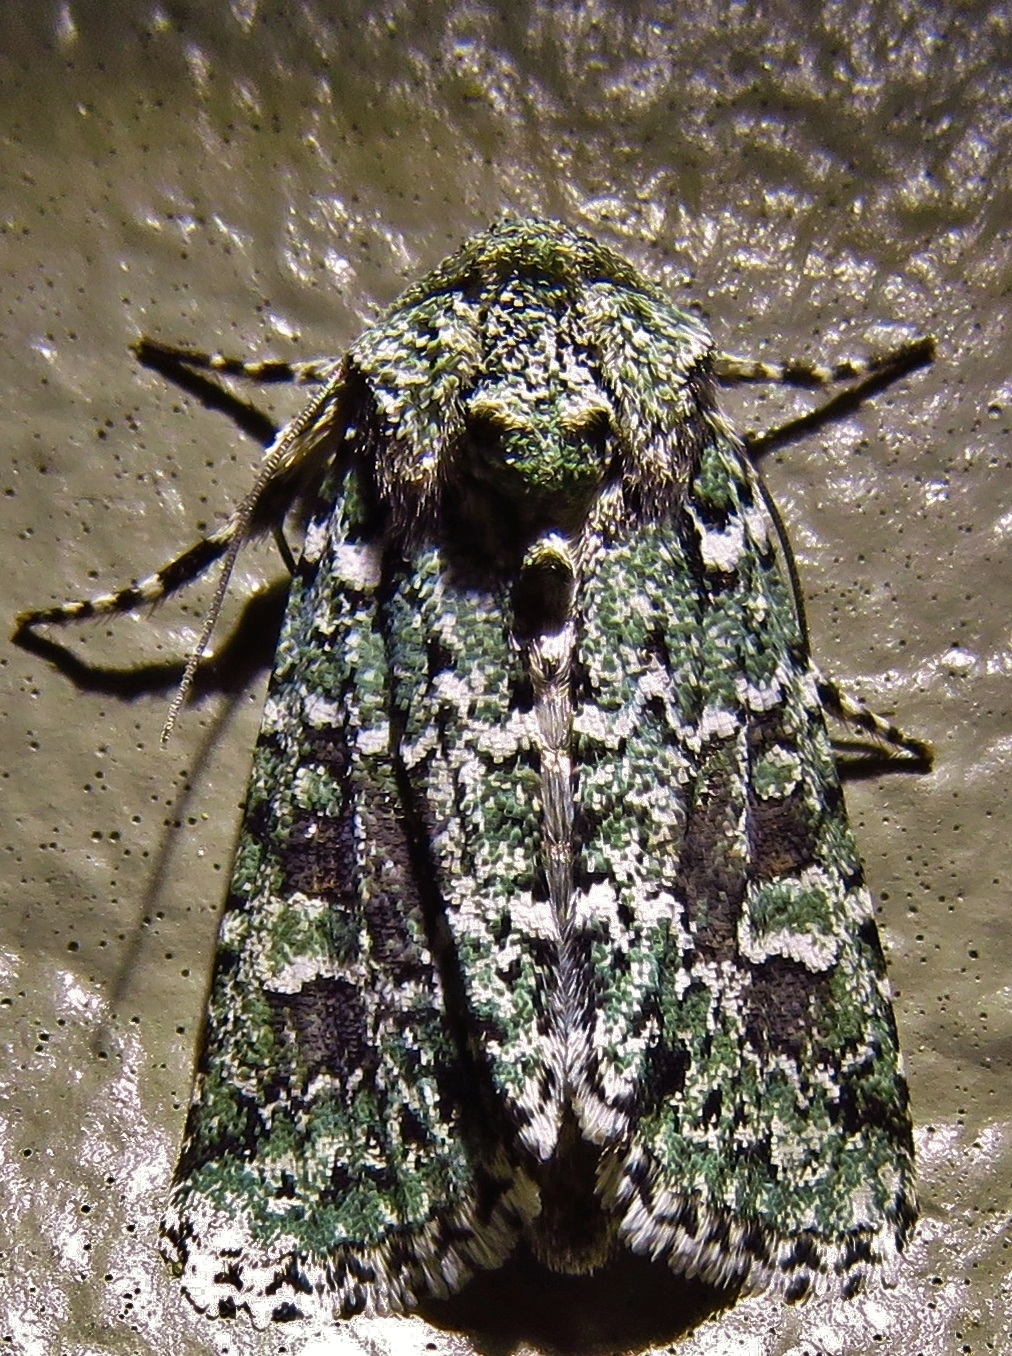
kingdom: Animalia
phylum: Arthropoda
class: Insecta
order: Lepidoptera
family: Noctuidae
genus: Lacinipolia
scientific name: Lacinipolia laudabilis
